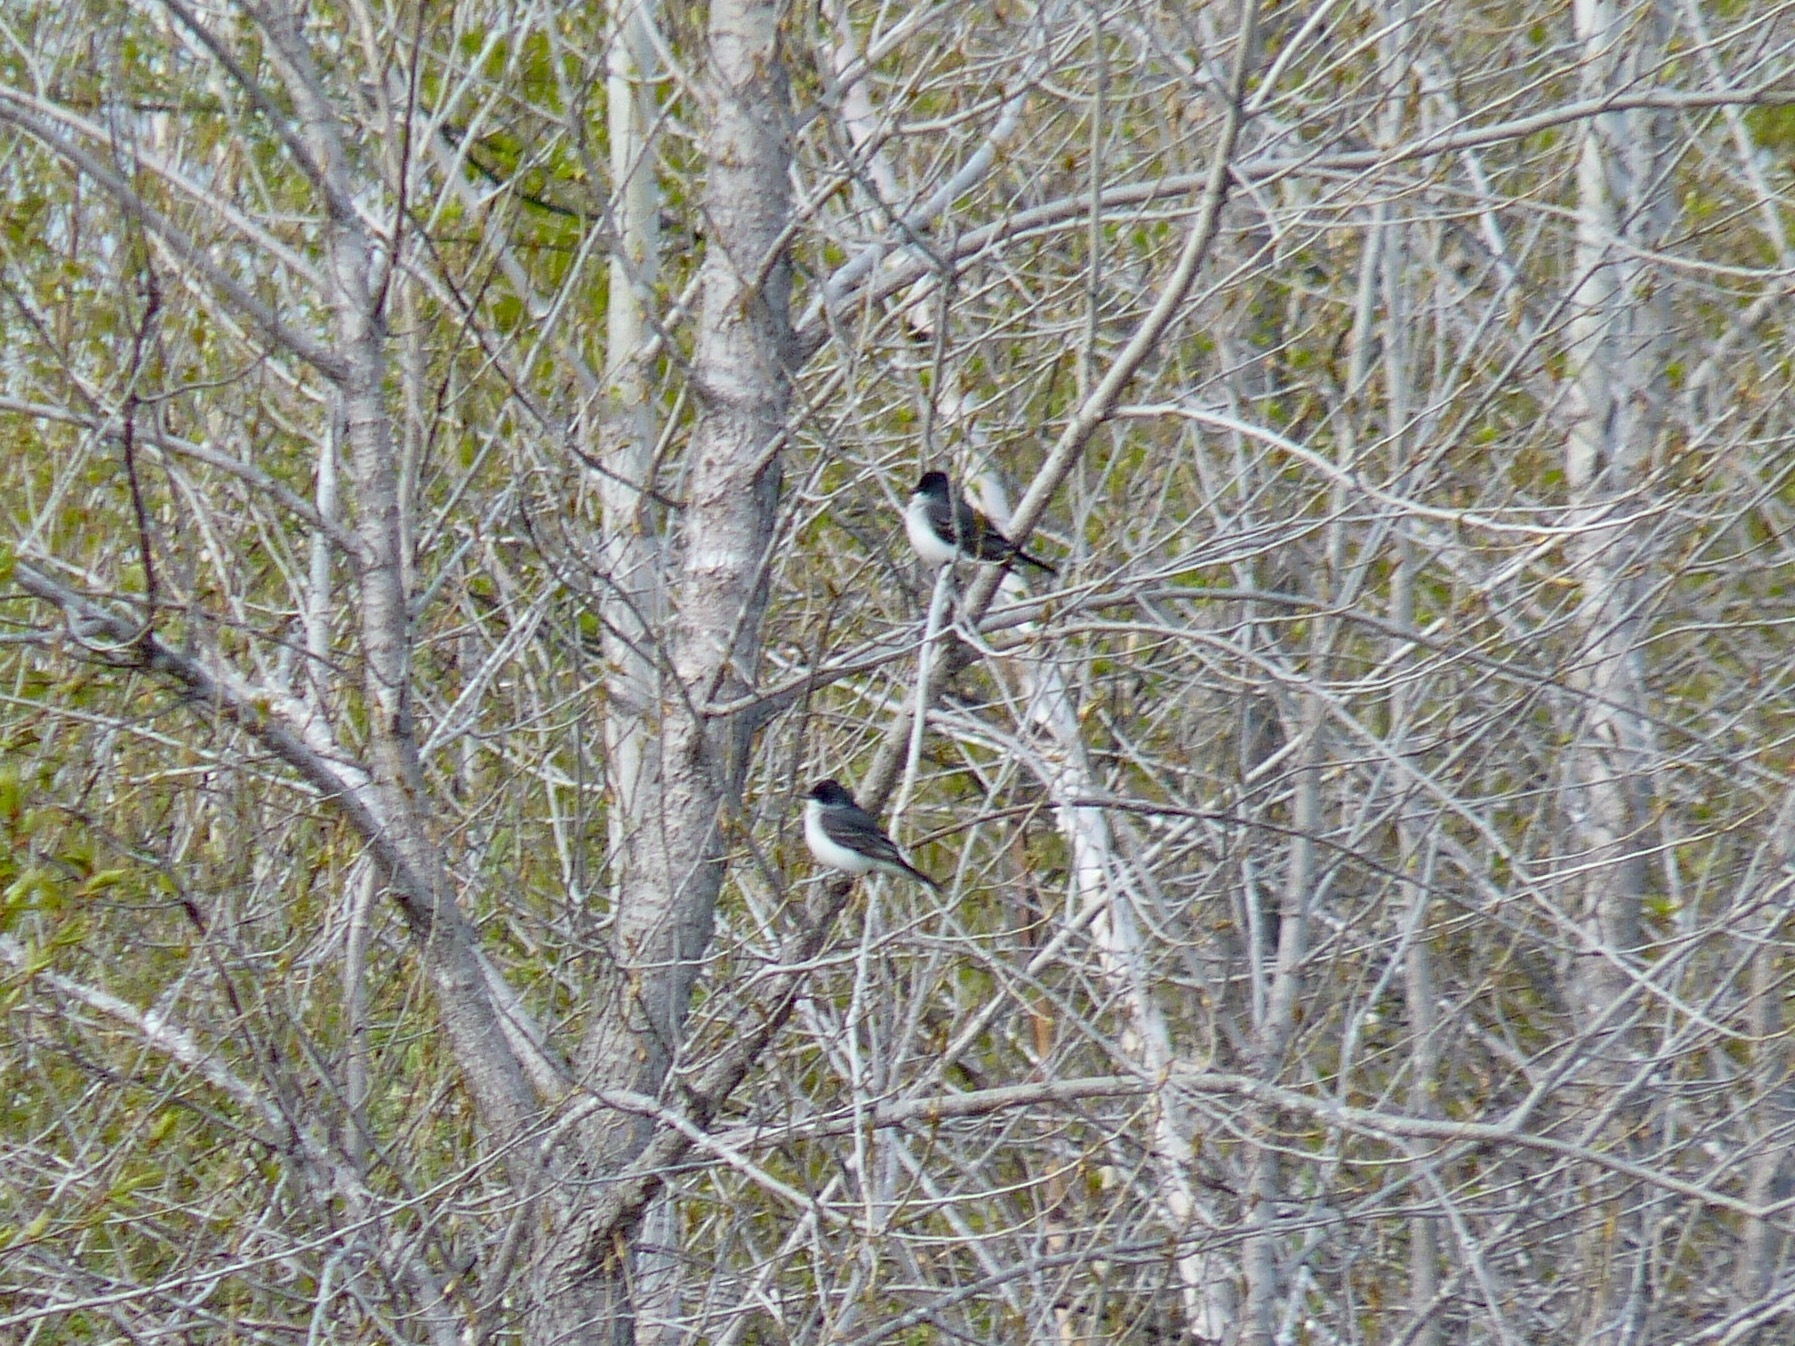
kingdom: Animalia
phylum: Chordata
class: Aves
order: Passeriformes
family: Tyrannidae
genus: Tyrannus
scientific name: Tyrannus tyrannus
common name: Eastern kingbird
